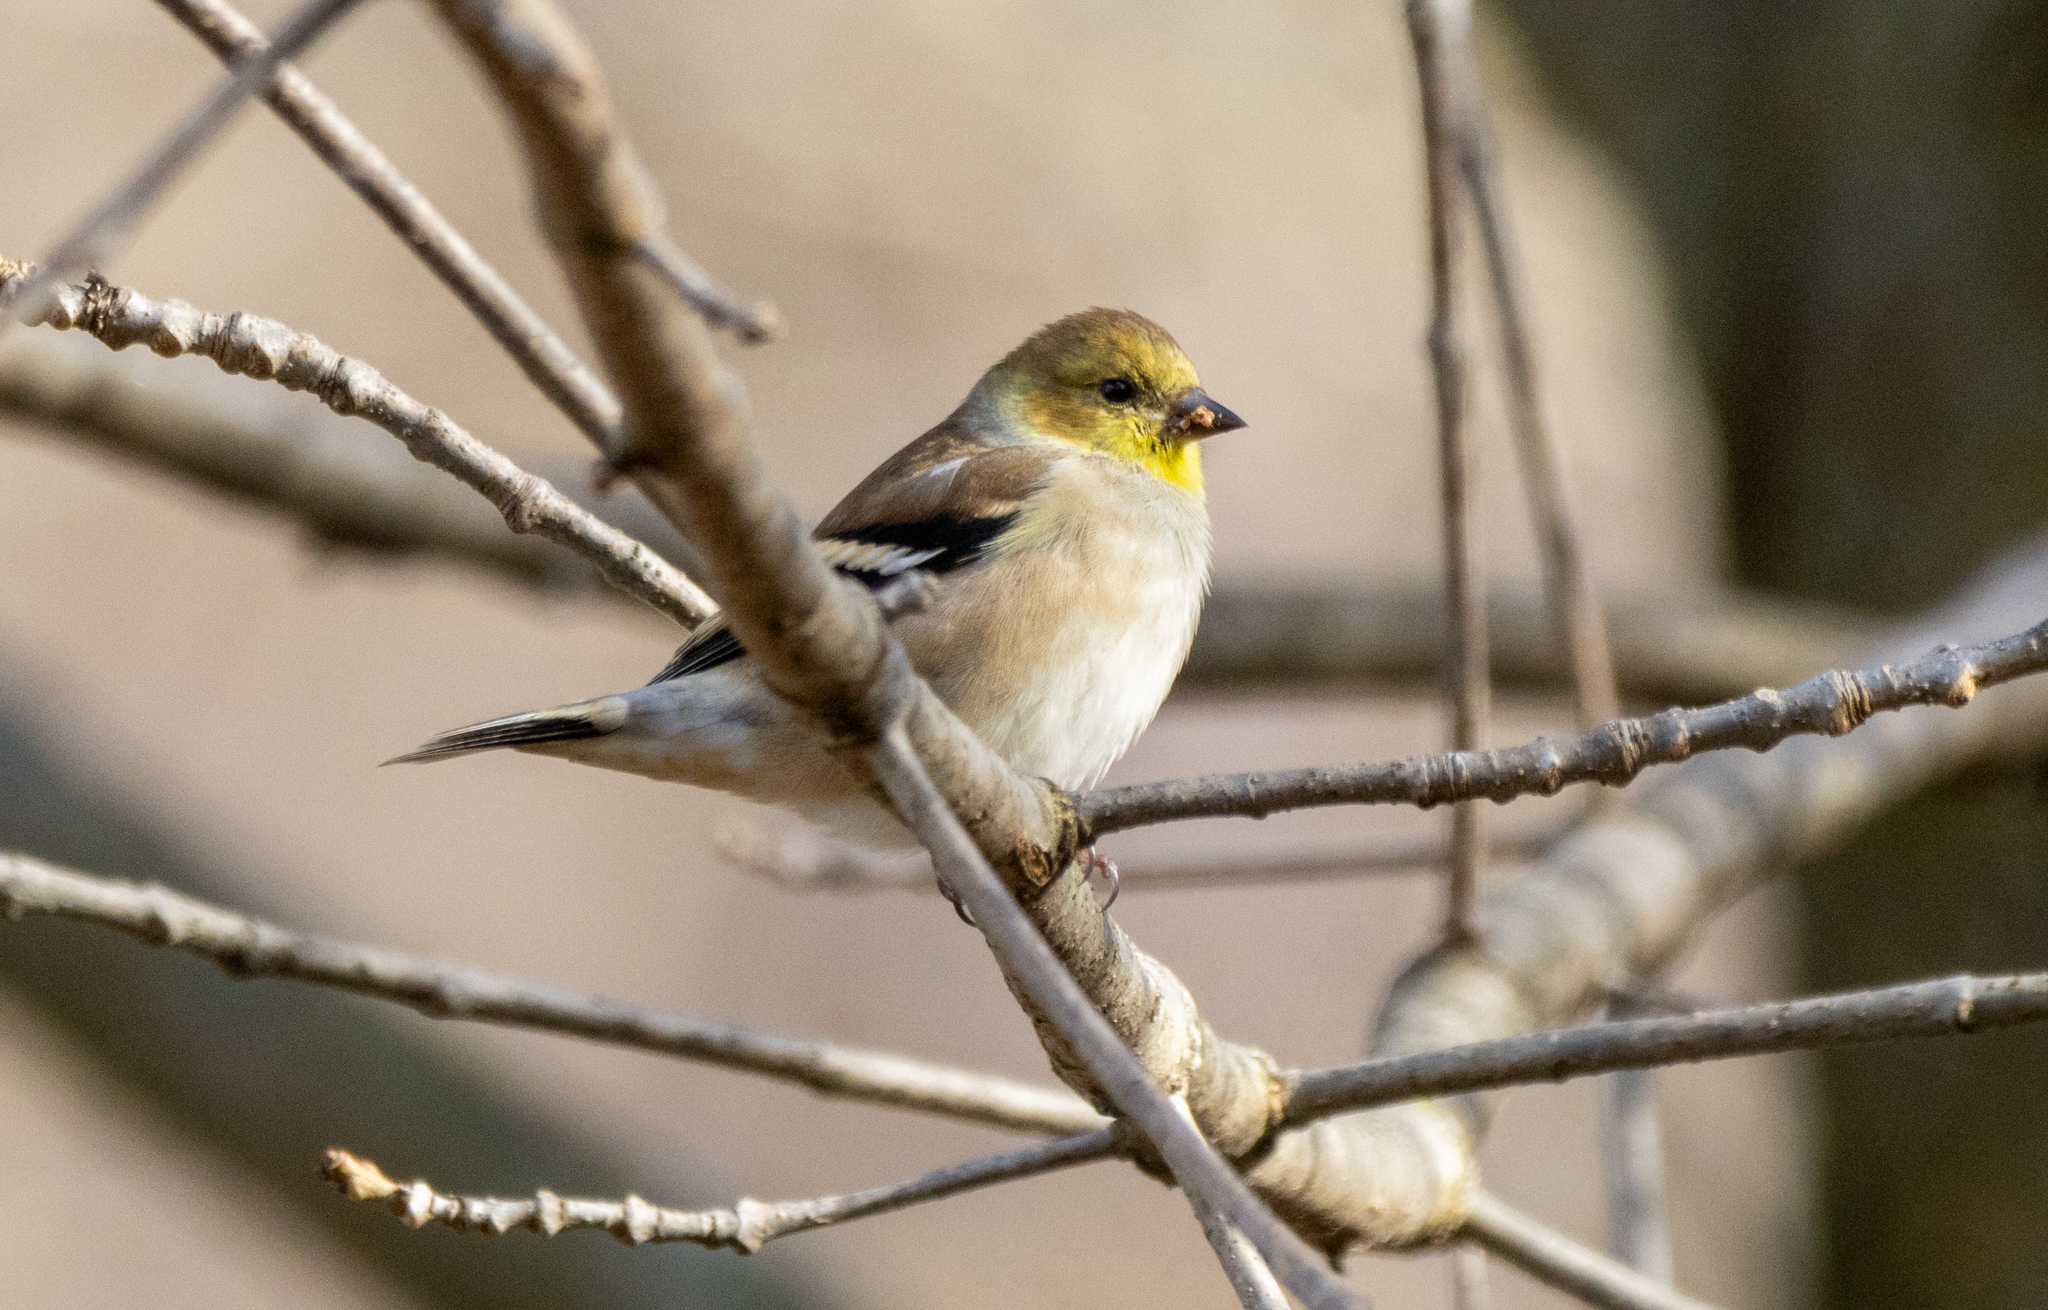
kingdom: Animalia
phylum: Chordata
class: Aves
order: Passeriformes
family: Fringillidae
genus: Spinus
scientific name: Spinus tristis
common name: American goldfinch
